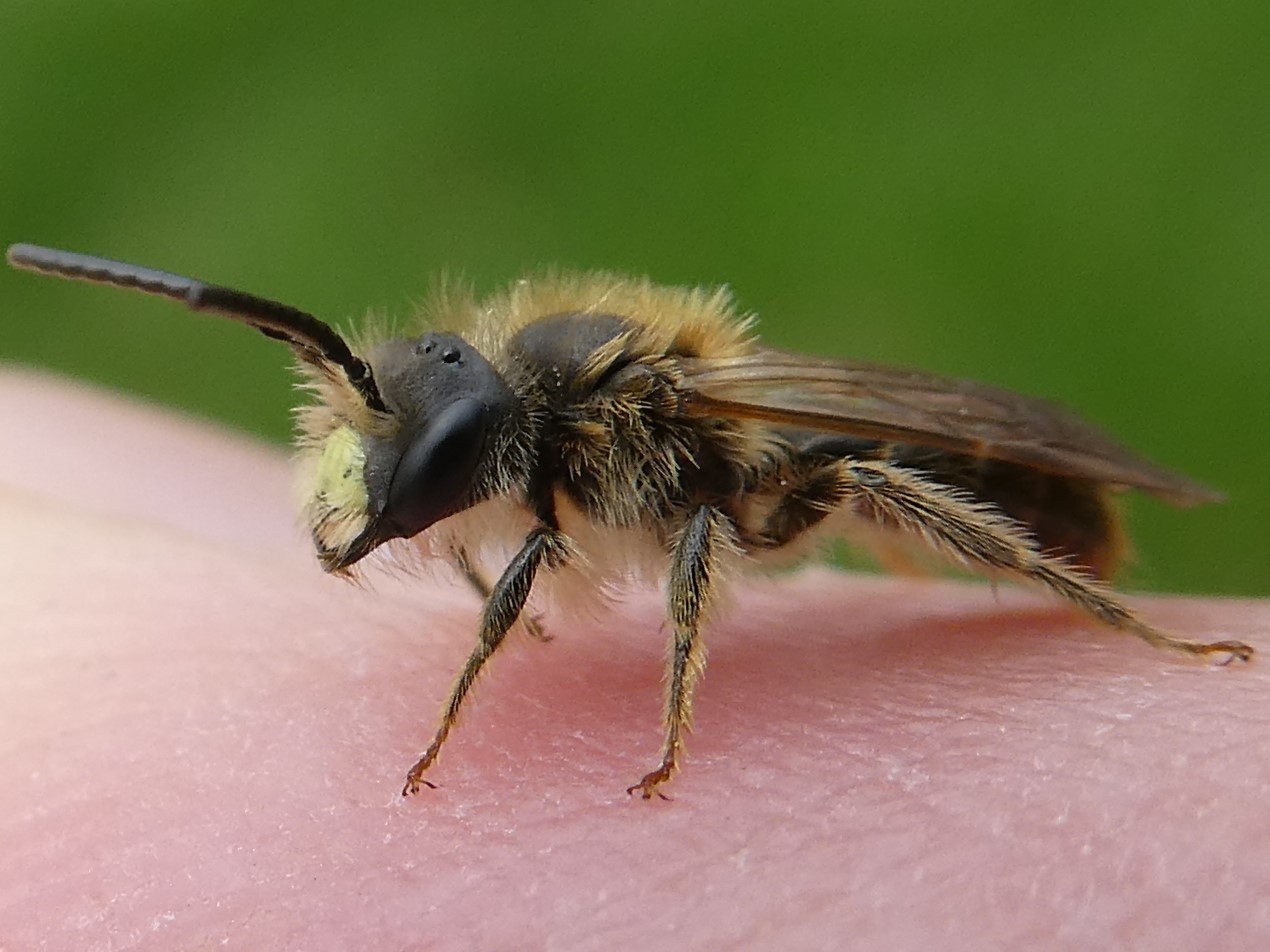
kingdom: Animalia
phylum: Arthropoda
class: Insecta
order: Hymenoptera
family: Andrenidae
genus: Andrena
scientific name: Andrena miserabilis
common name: Miserable mining bee
